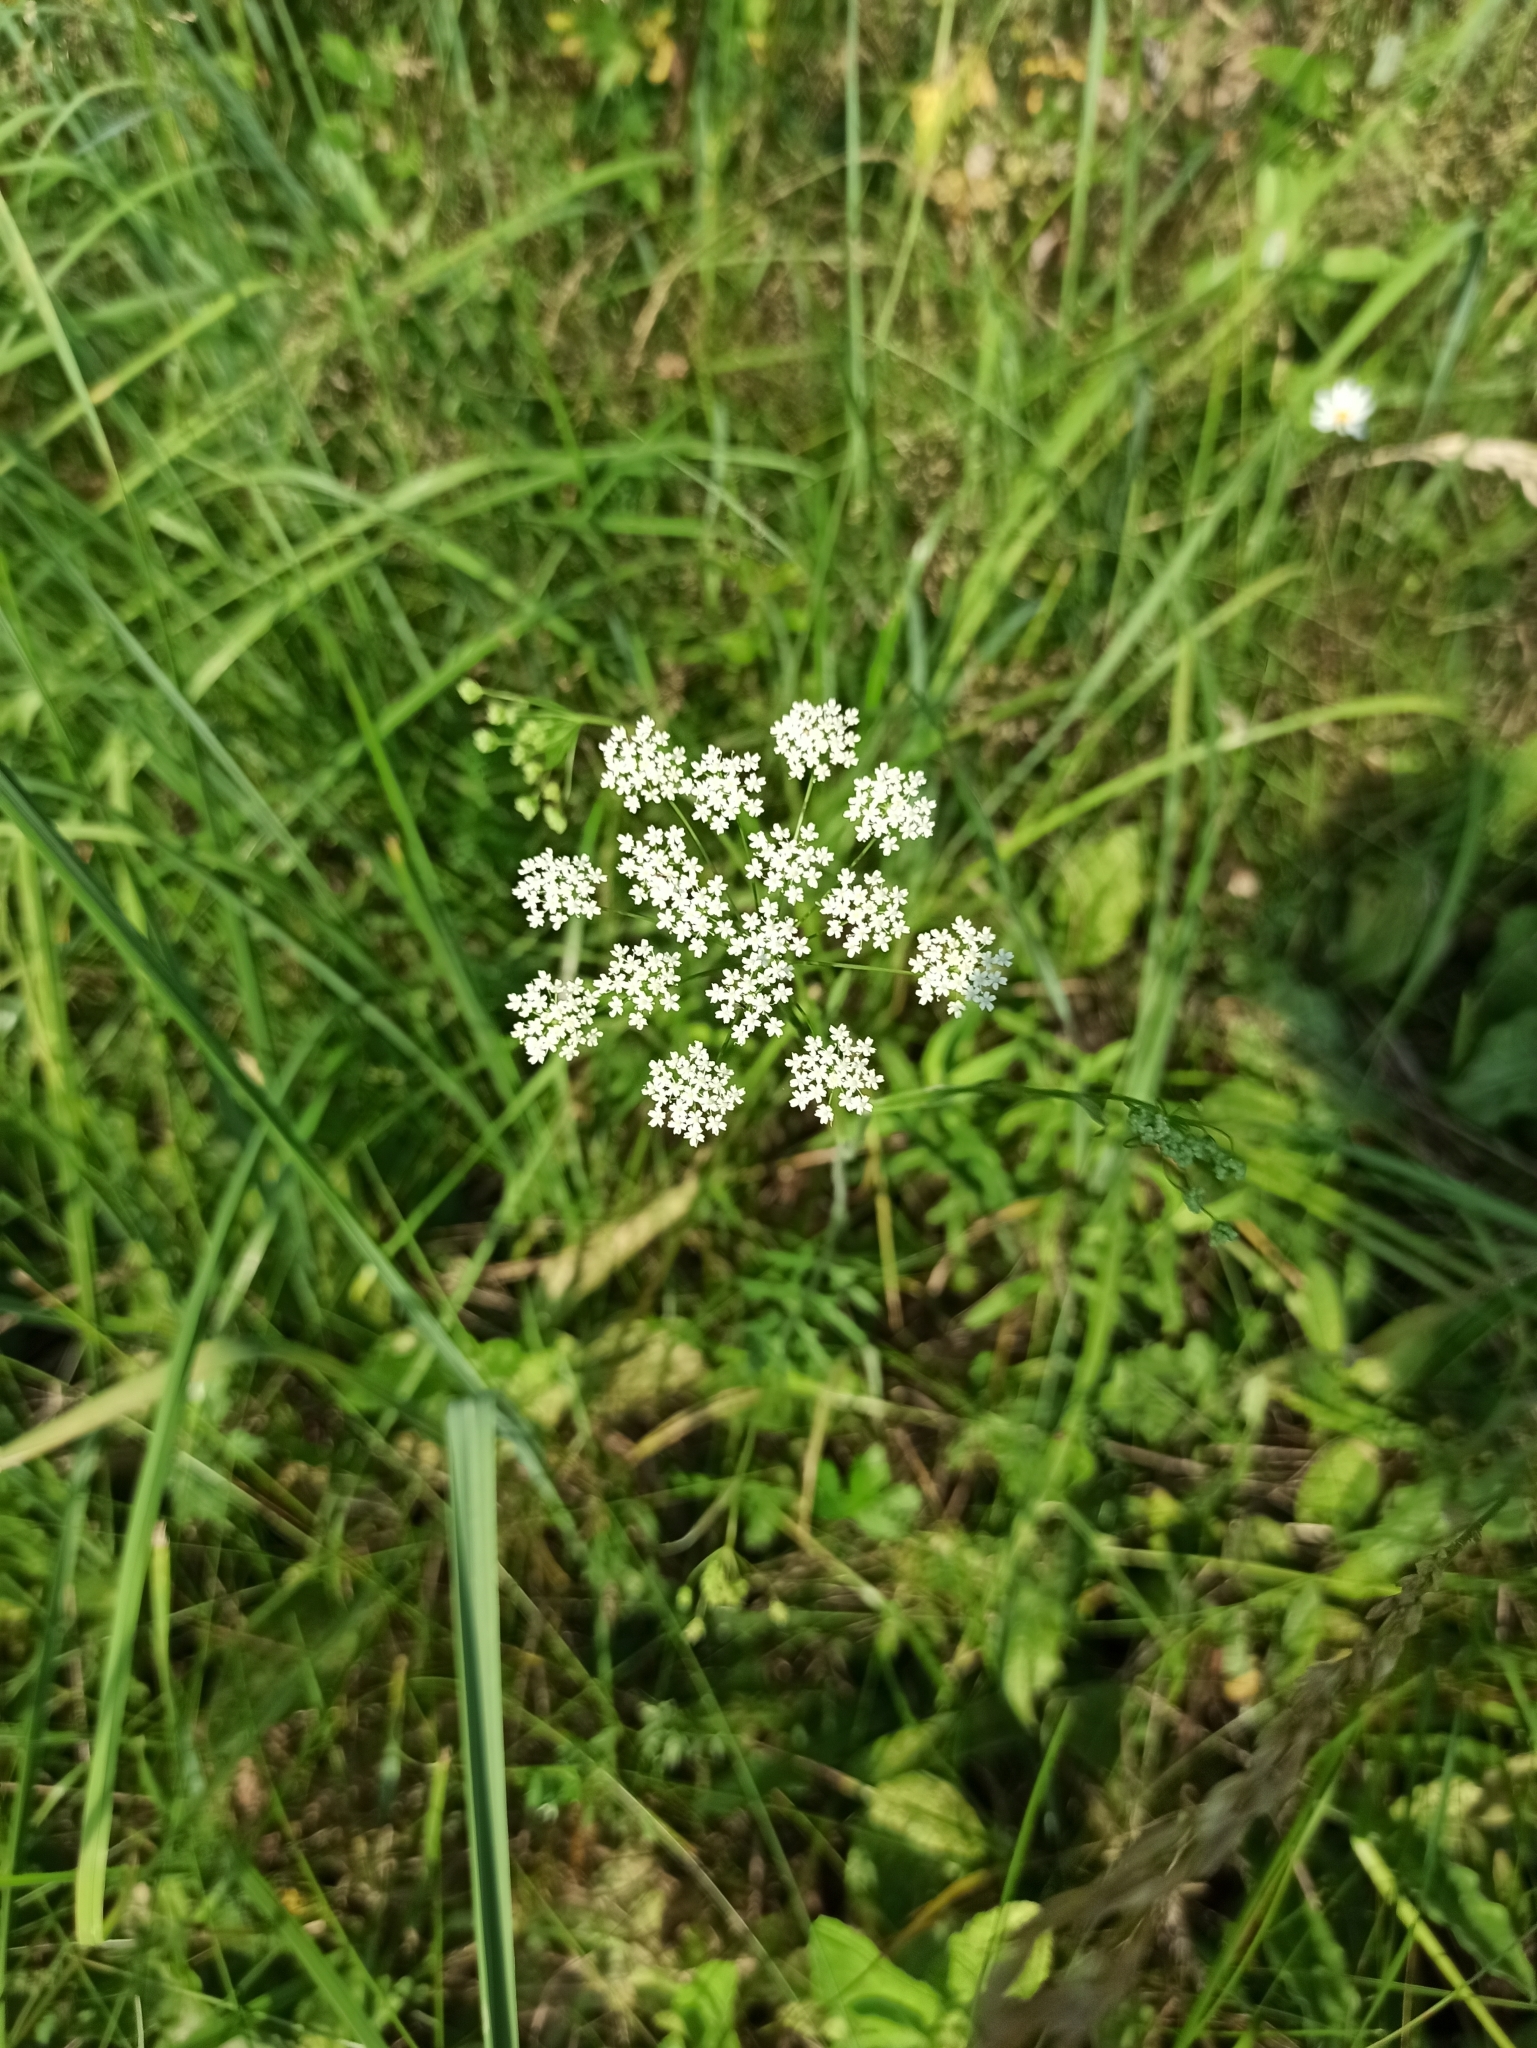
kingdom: Plantae
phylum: Tracheophyta
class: Magnoliopsida
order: Apiales
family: Apiaceae
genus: Pimpinella
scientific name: Pimpinella saxifraga
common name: Burnet-saxifrage
